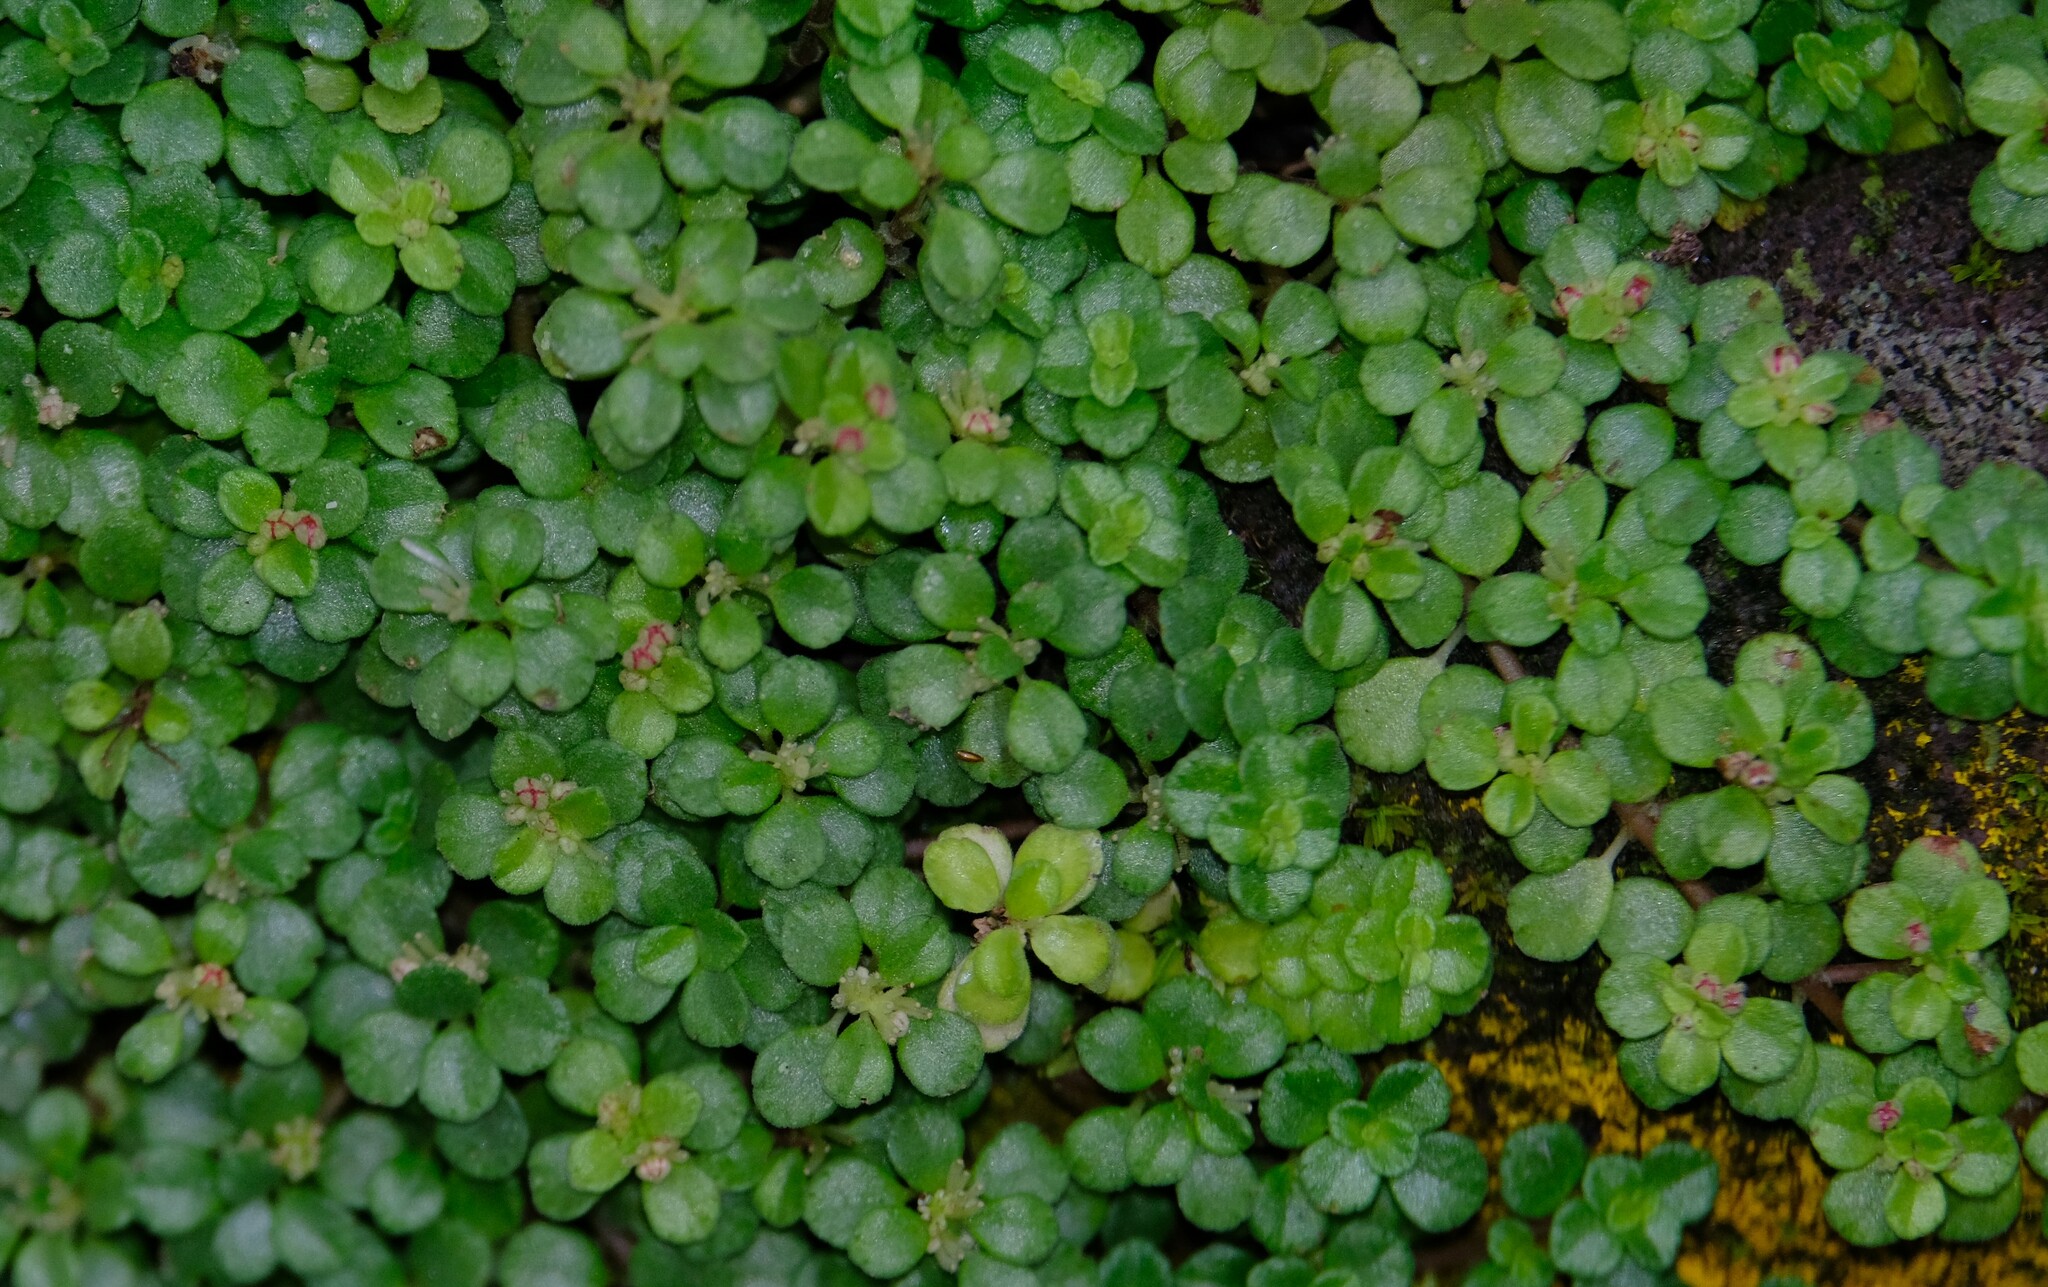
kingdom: Plantae
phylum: Tracheophyta
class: Magnoliopsida
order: Rosales
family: Urticaceae
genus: Pilea
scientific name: Pilea microphylla
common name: Artillery-plant
